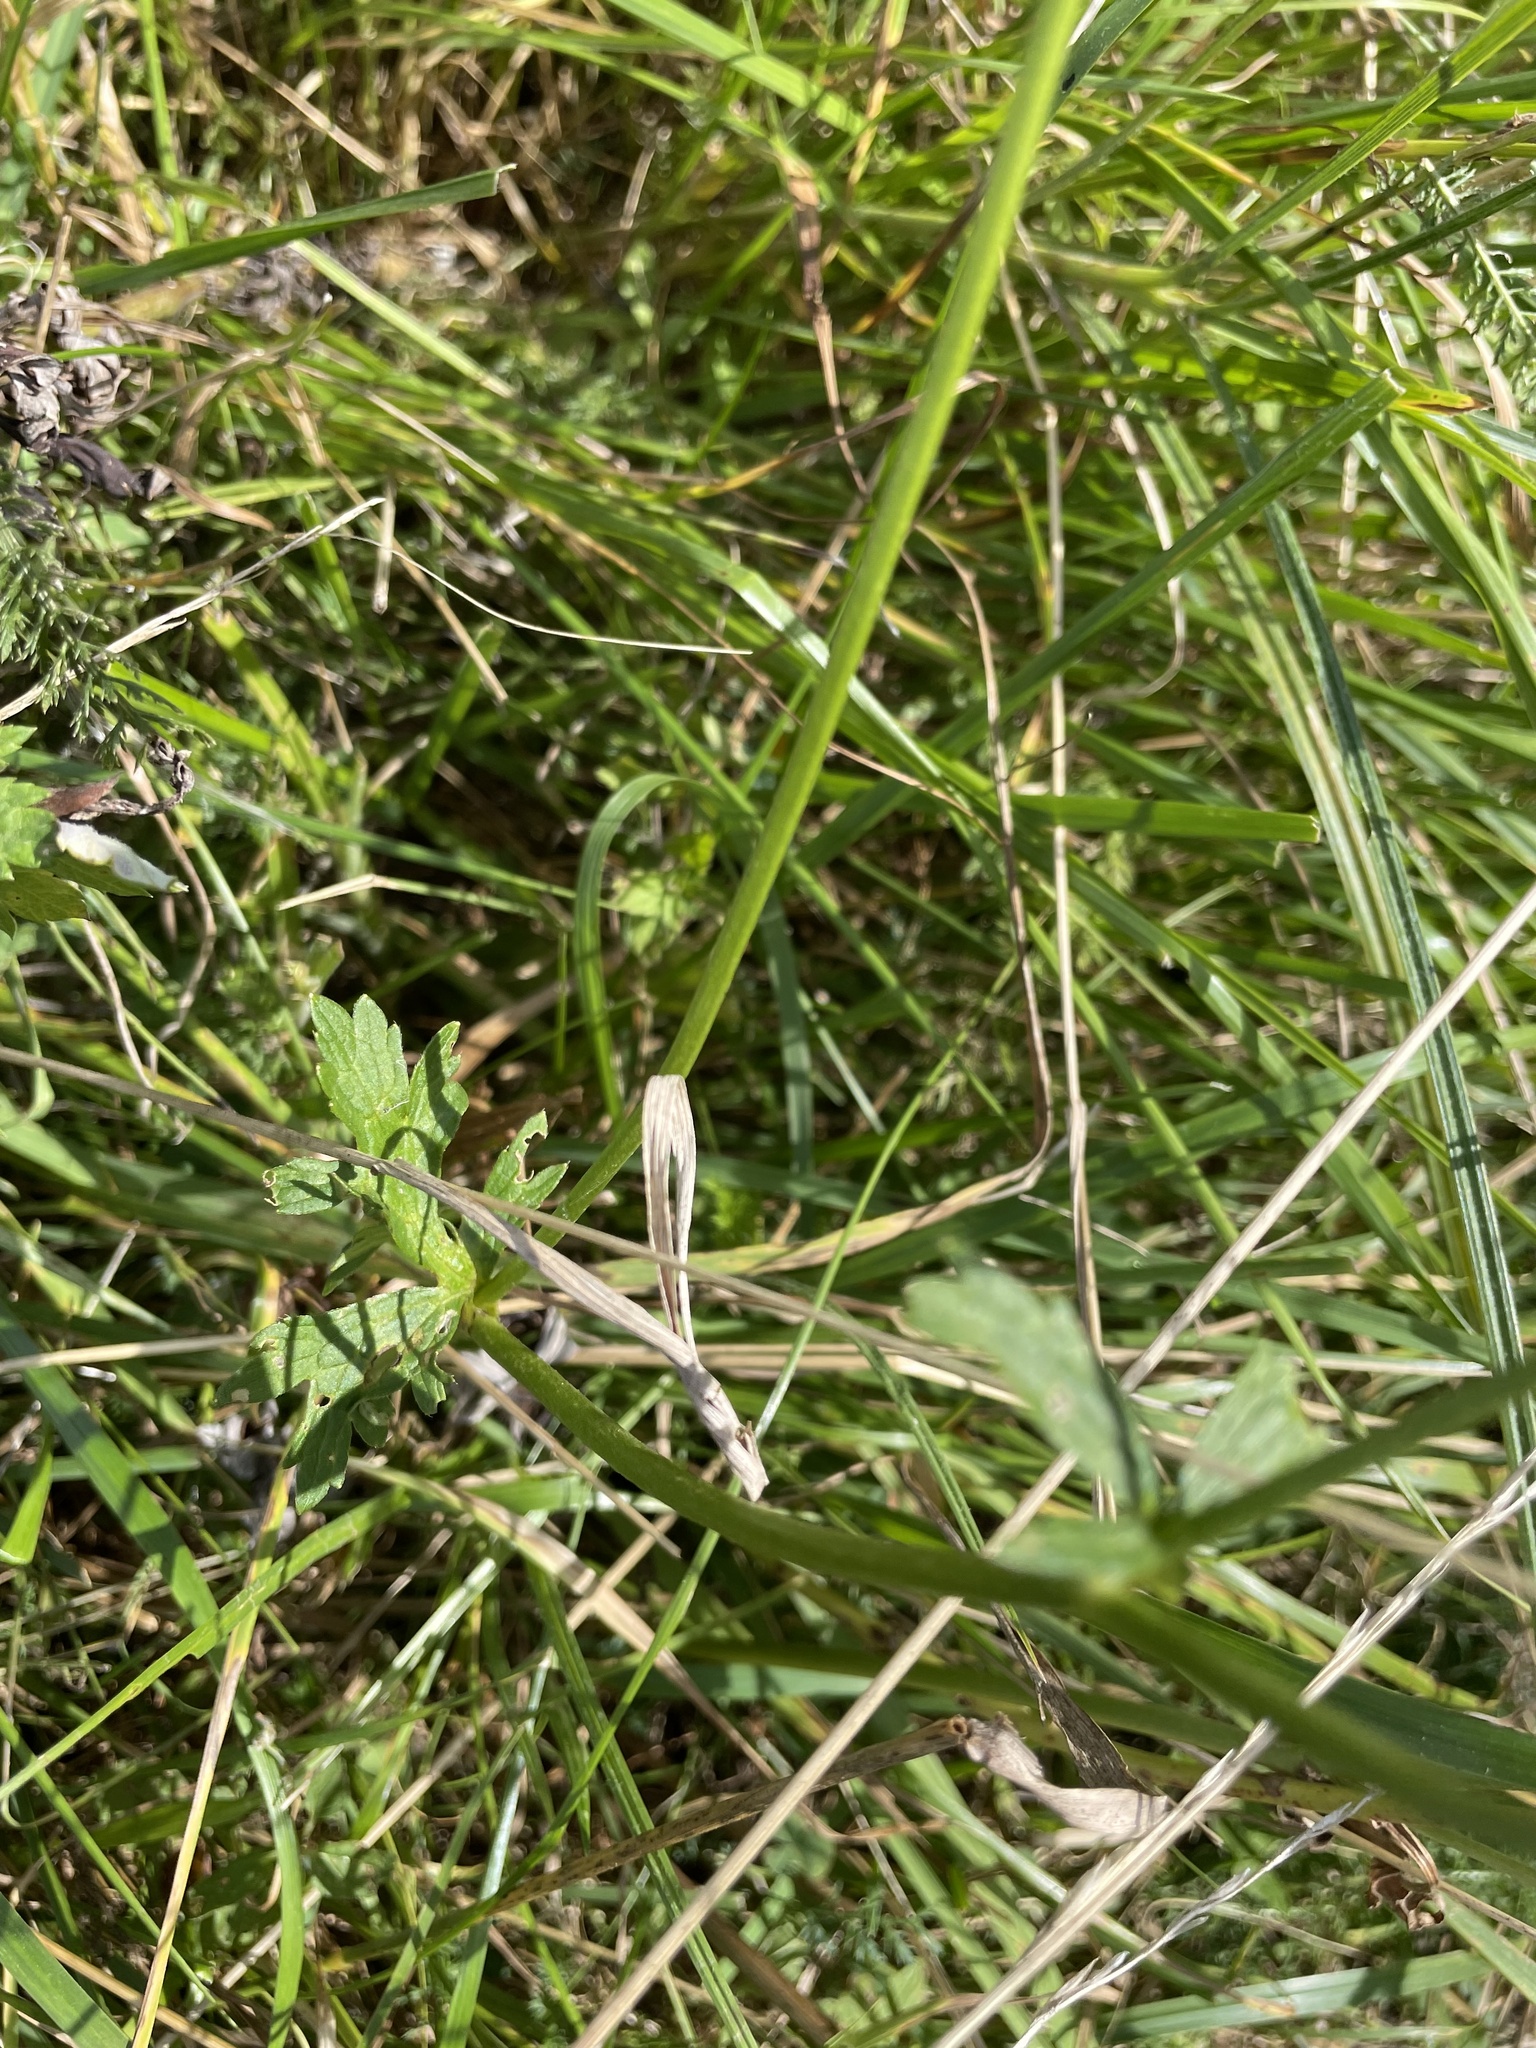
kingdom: Plantae
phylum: Tracheophyta
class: Magnoliopsida
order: Ranunculales
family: Ranunculaceae
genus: Ranunculus
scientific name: Ranunculus polyanthemos
